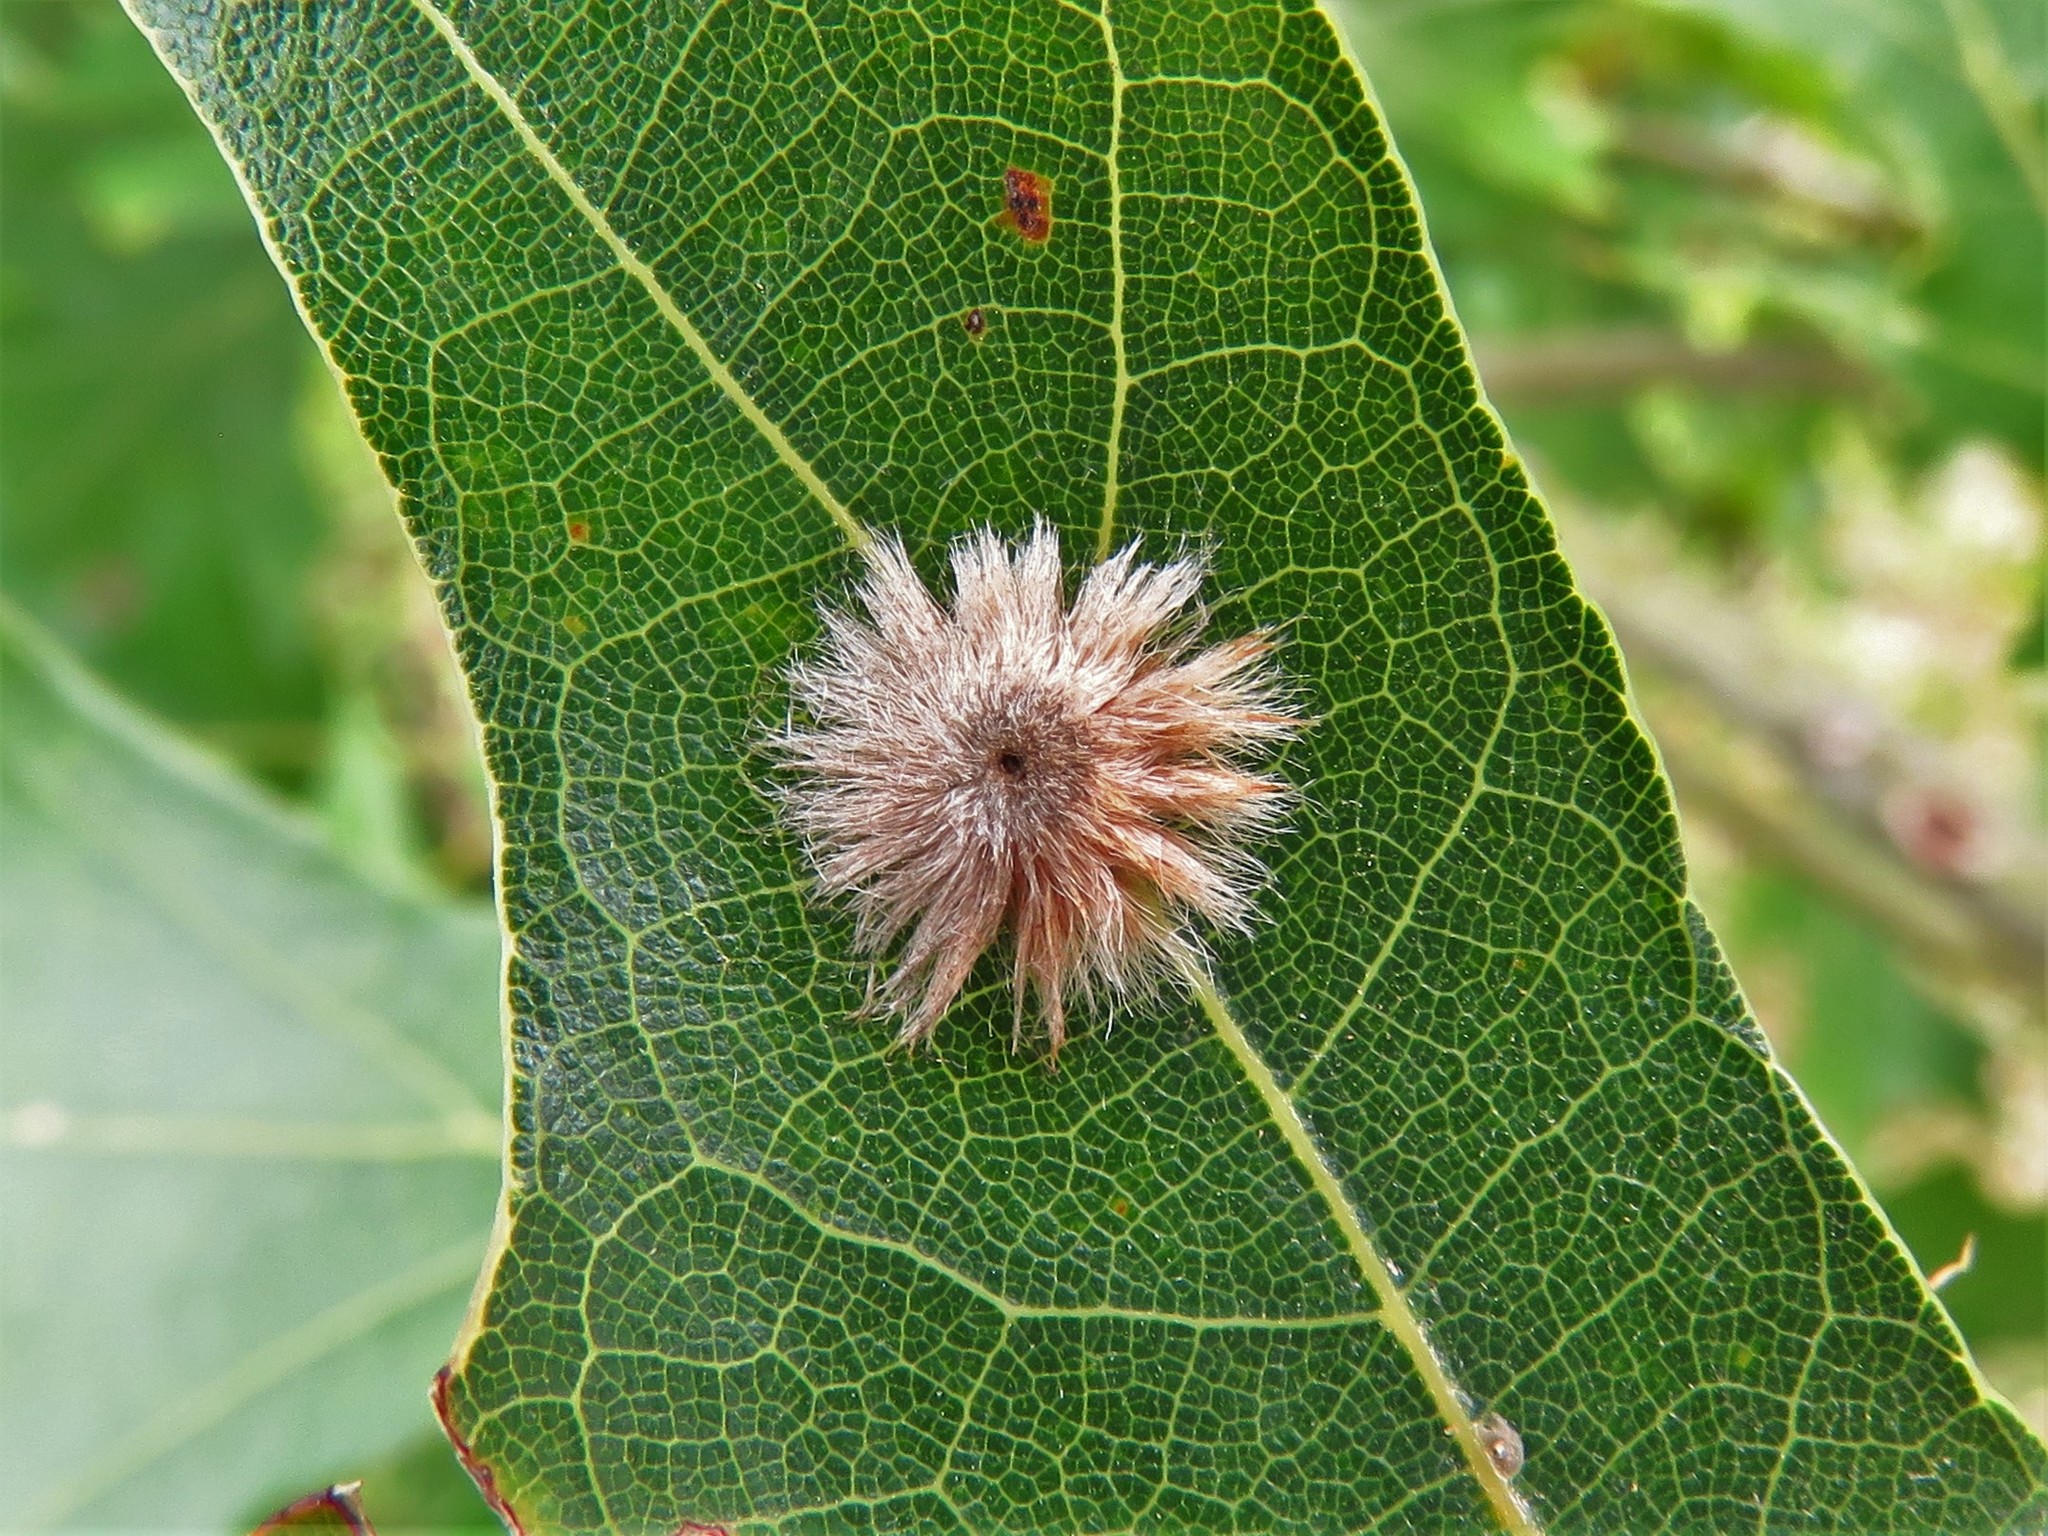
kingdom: Animalia
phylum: Arthropoda
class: Insecta
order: Hymenoptera
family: Cynipidae
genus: Callirhytis
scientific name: Callirhytis
